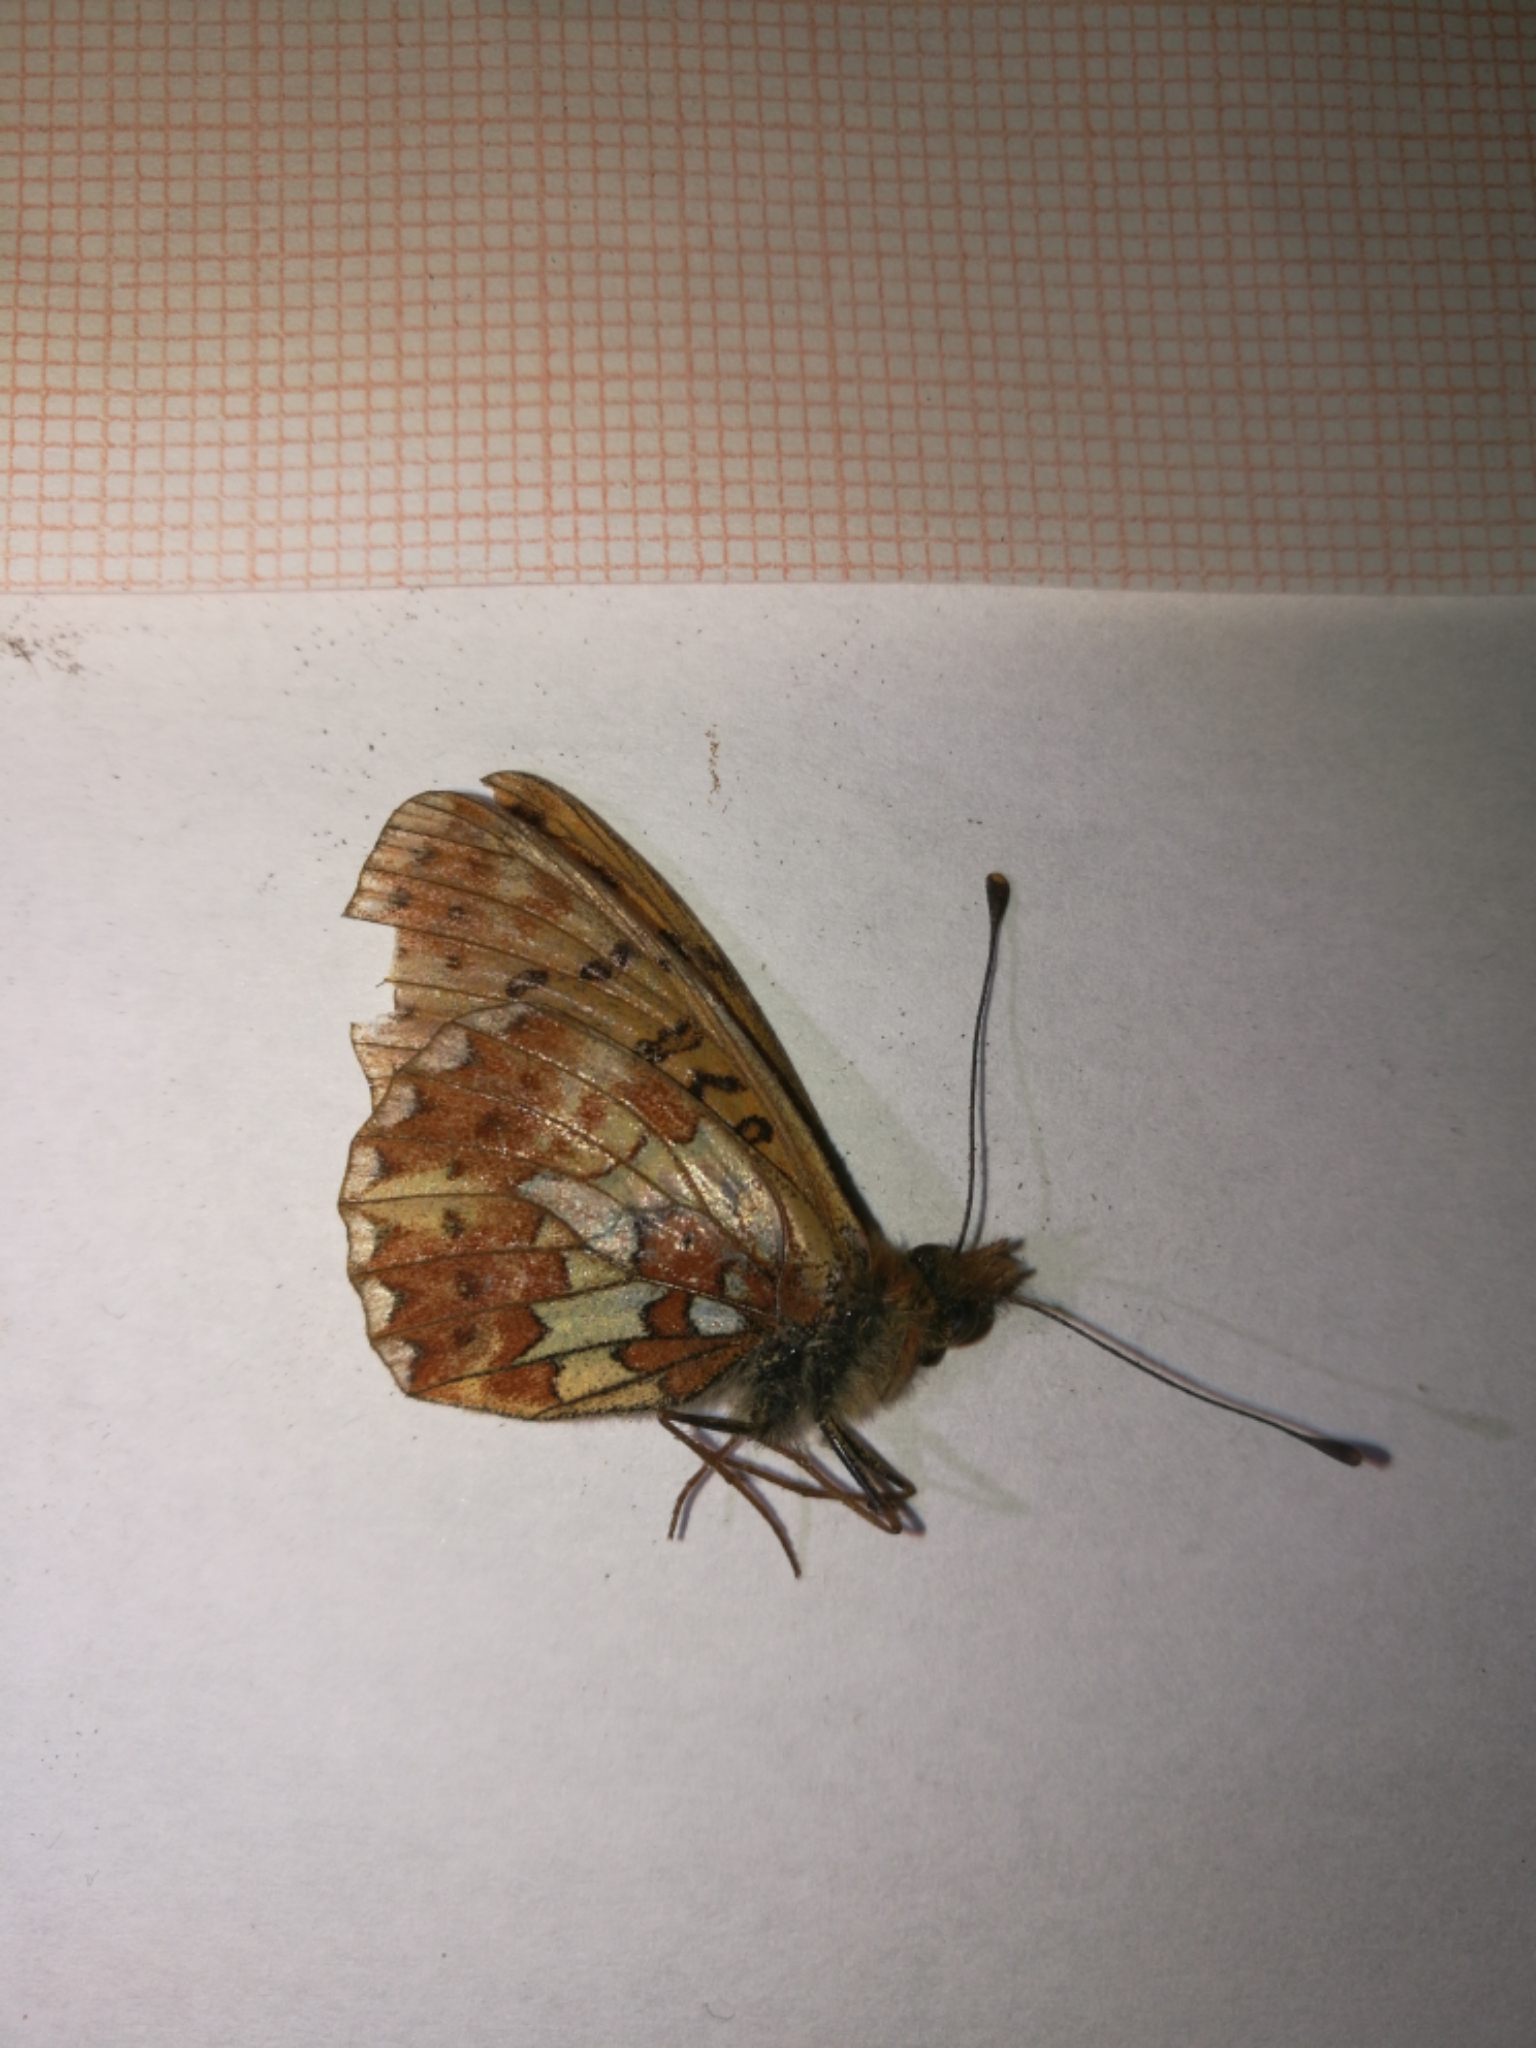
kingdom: Animalia
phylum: Arthropoda
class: Insecta
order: Lepidoptera
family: Nymphalidae
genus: Clossiana
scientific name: Clossiana euphrosyne
